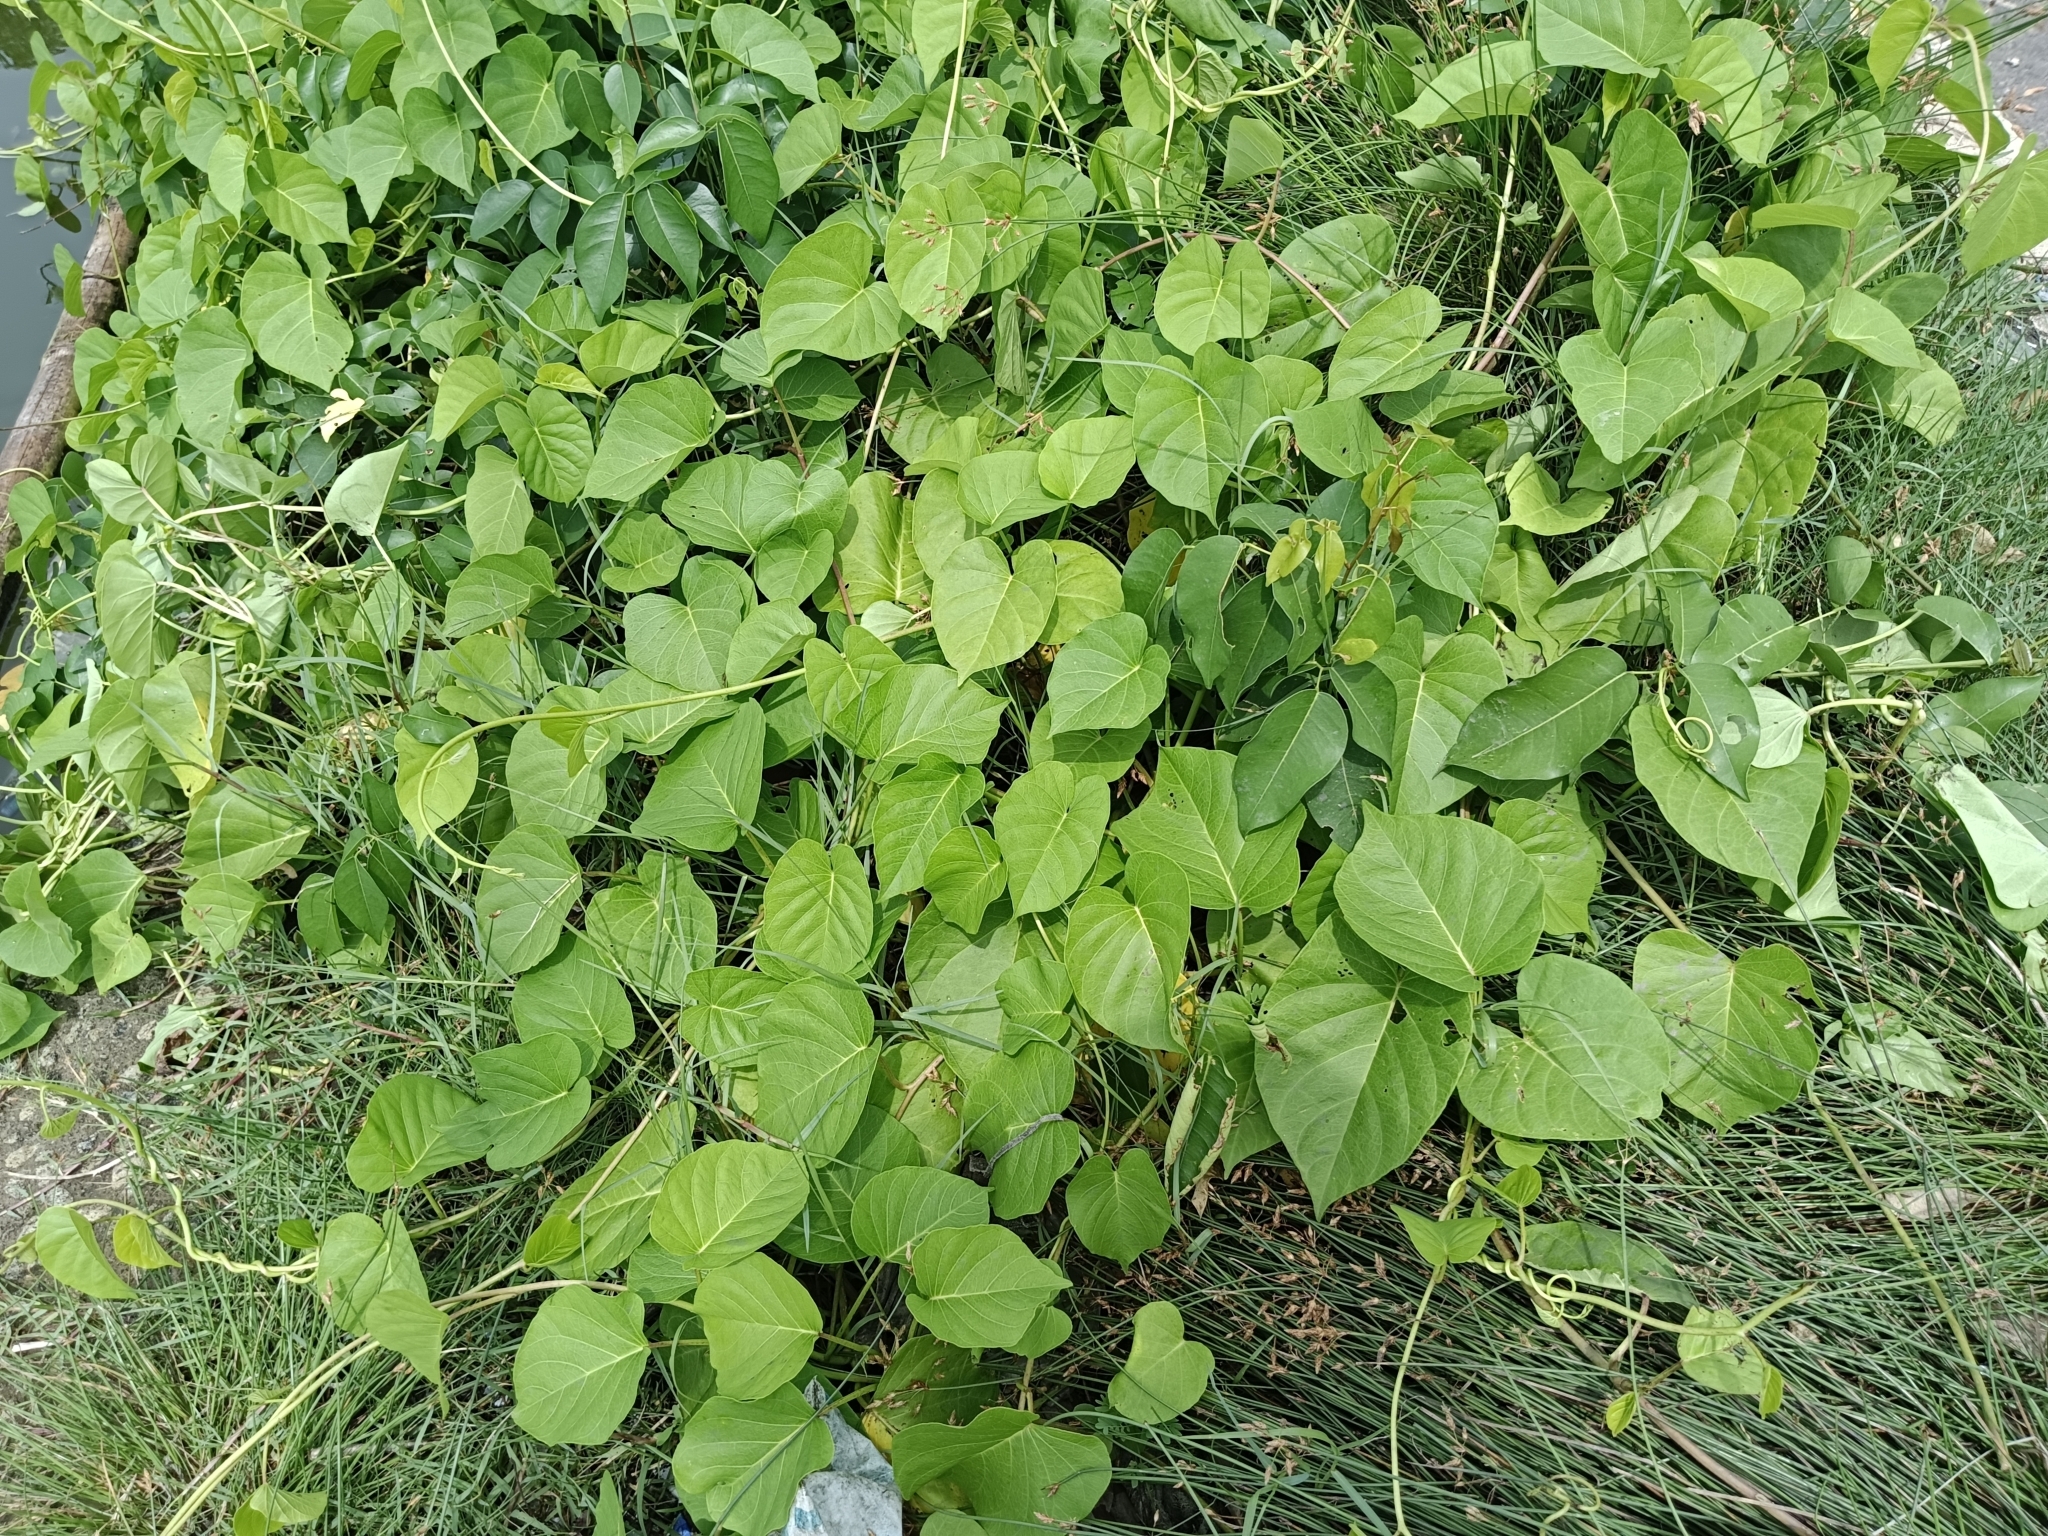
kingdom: Plantae
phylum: Tracheophyta
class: Magnoliopsida
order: Solanales
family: Convolvulaceae
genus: Ipomoea
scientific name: Ipomoea violacea
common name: Beach moonflower
